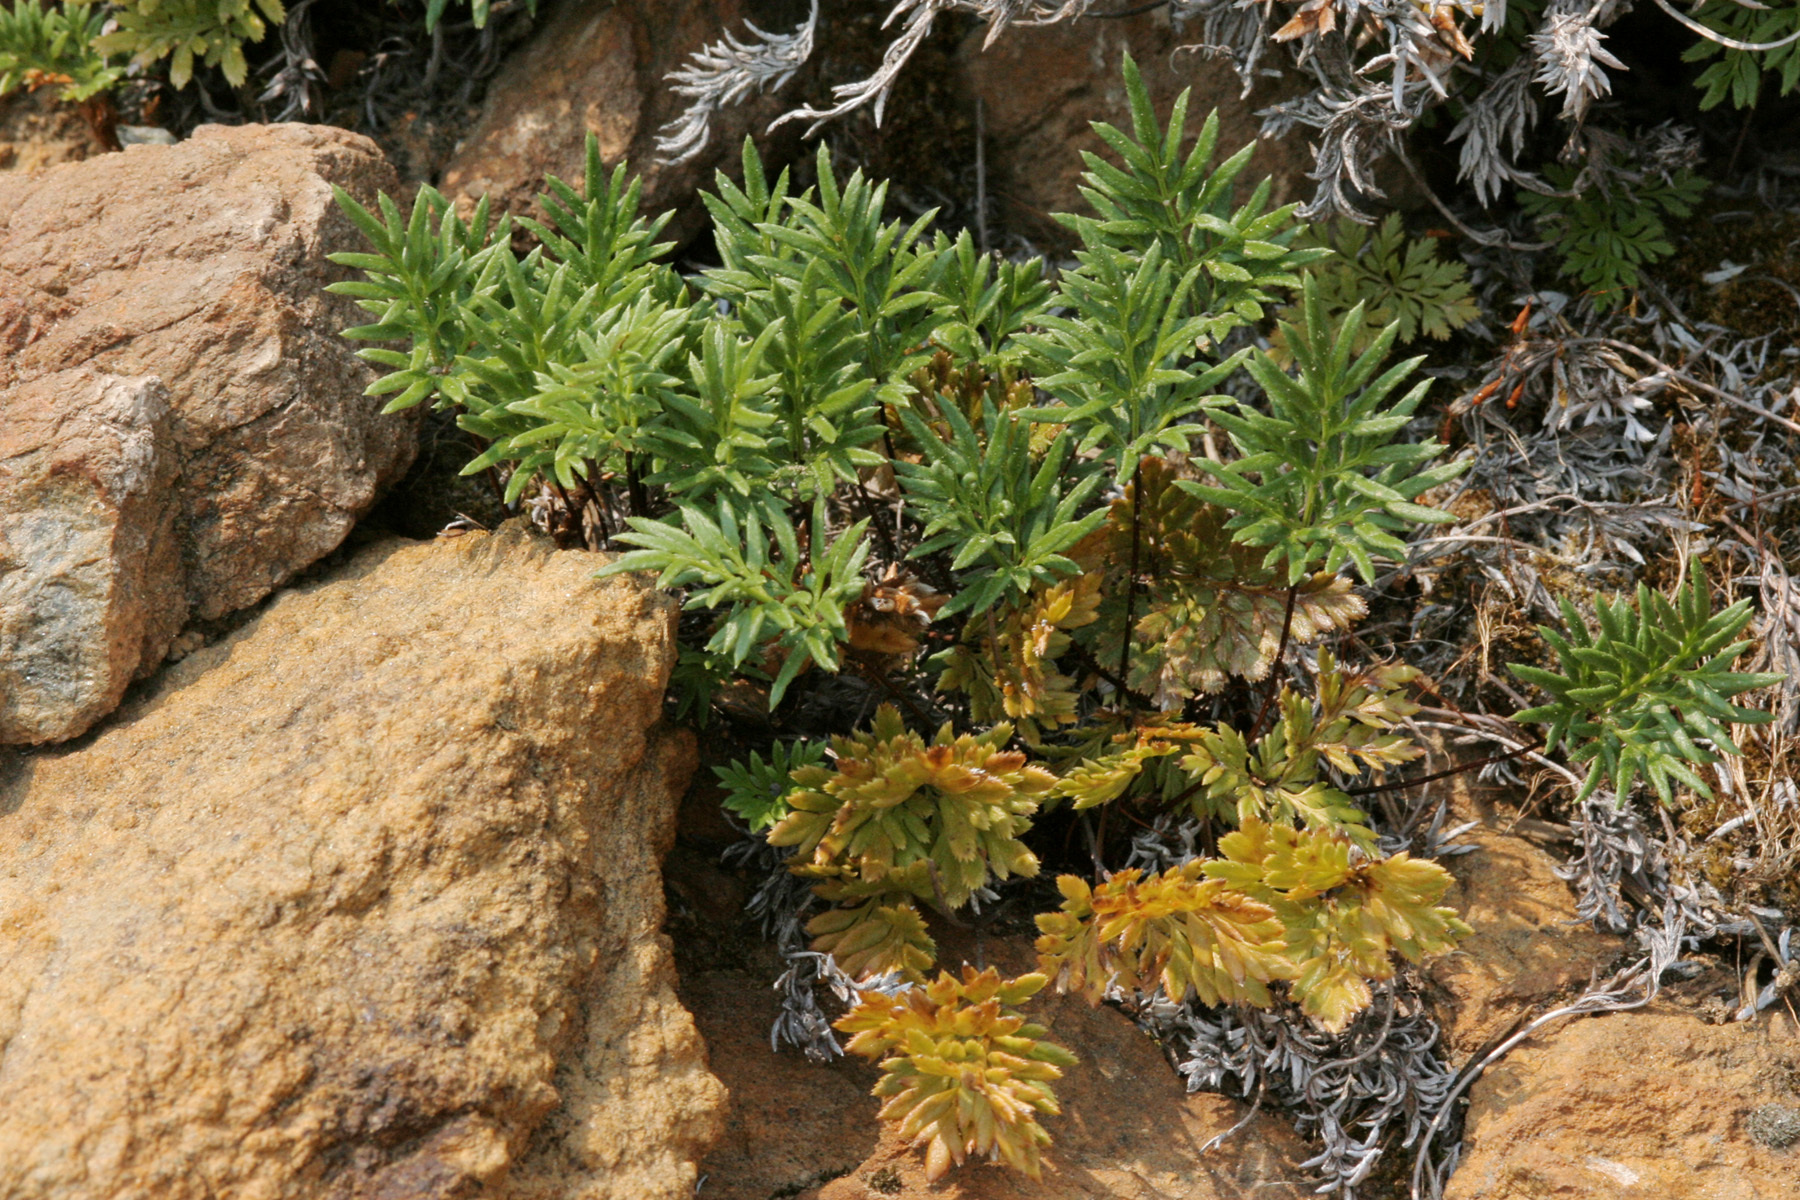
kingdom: Plantae
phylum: Tracheophyta
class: Polypodiopsida
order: Polypodiales
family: Pteridaceae
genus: Aspidotis
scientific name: Aspidotis densa
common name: Indian's dream
